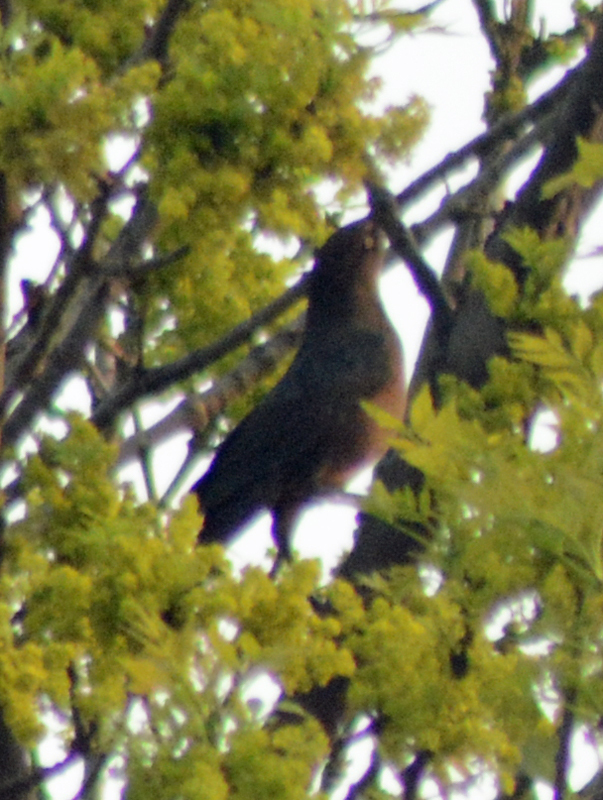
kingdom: Animalia
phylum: Chordata
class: Aves
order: Passeriformes
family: Icteridae
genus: Quiscalus
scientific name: Quiscalus mexicanus
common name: Great-tailed grackle
